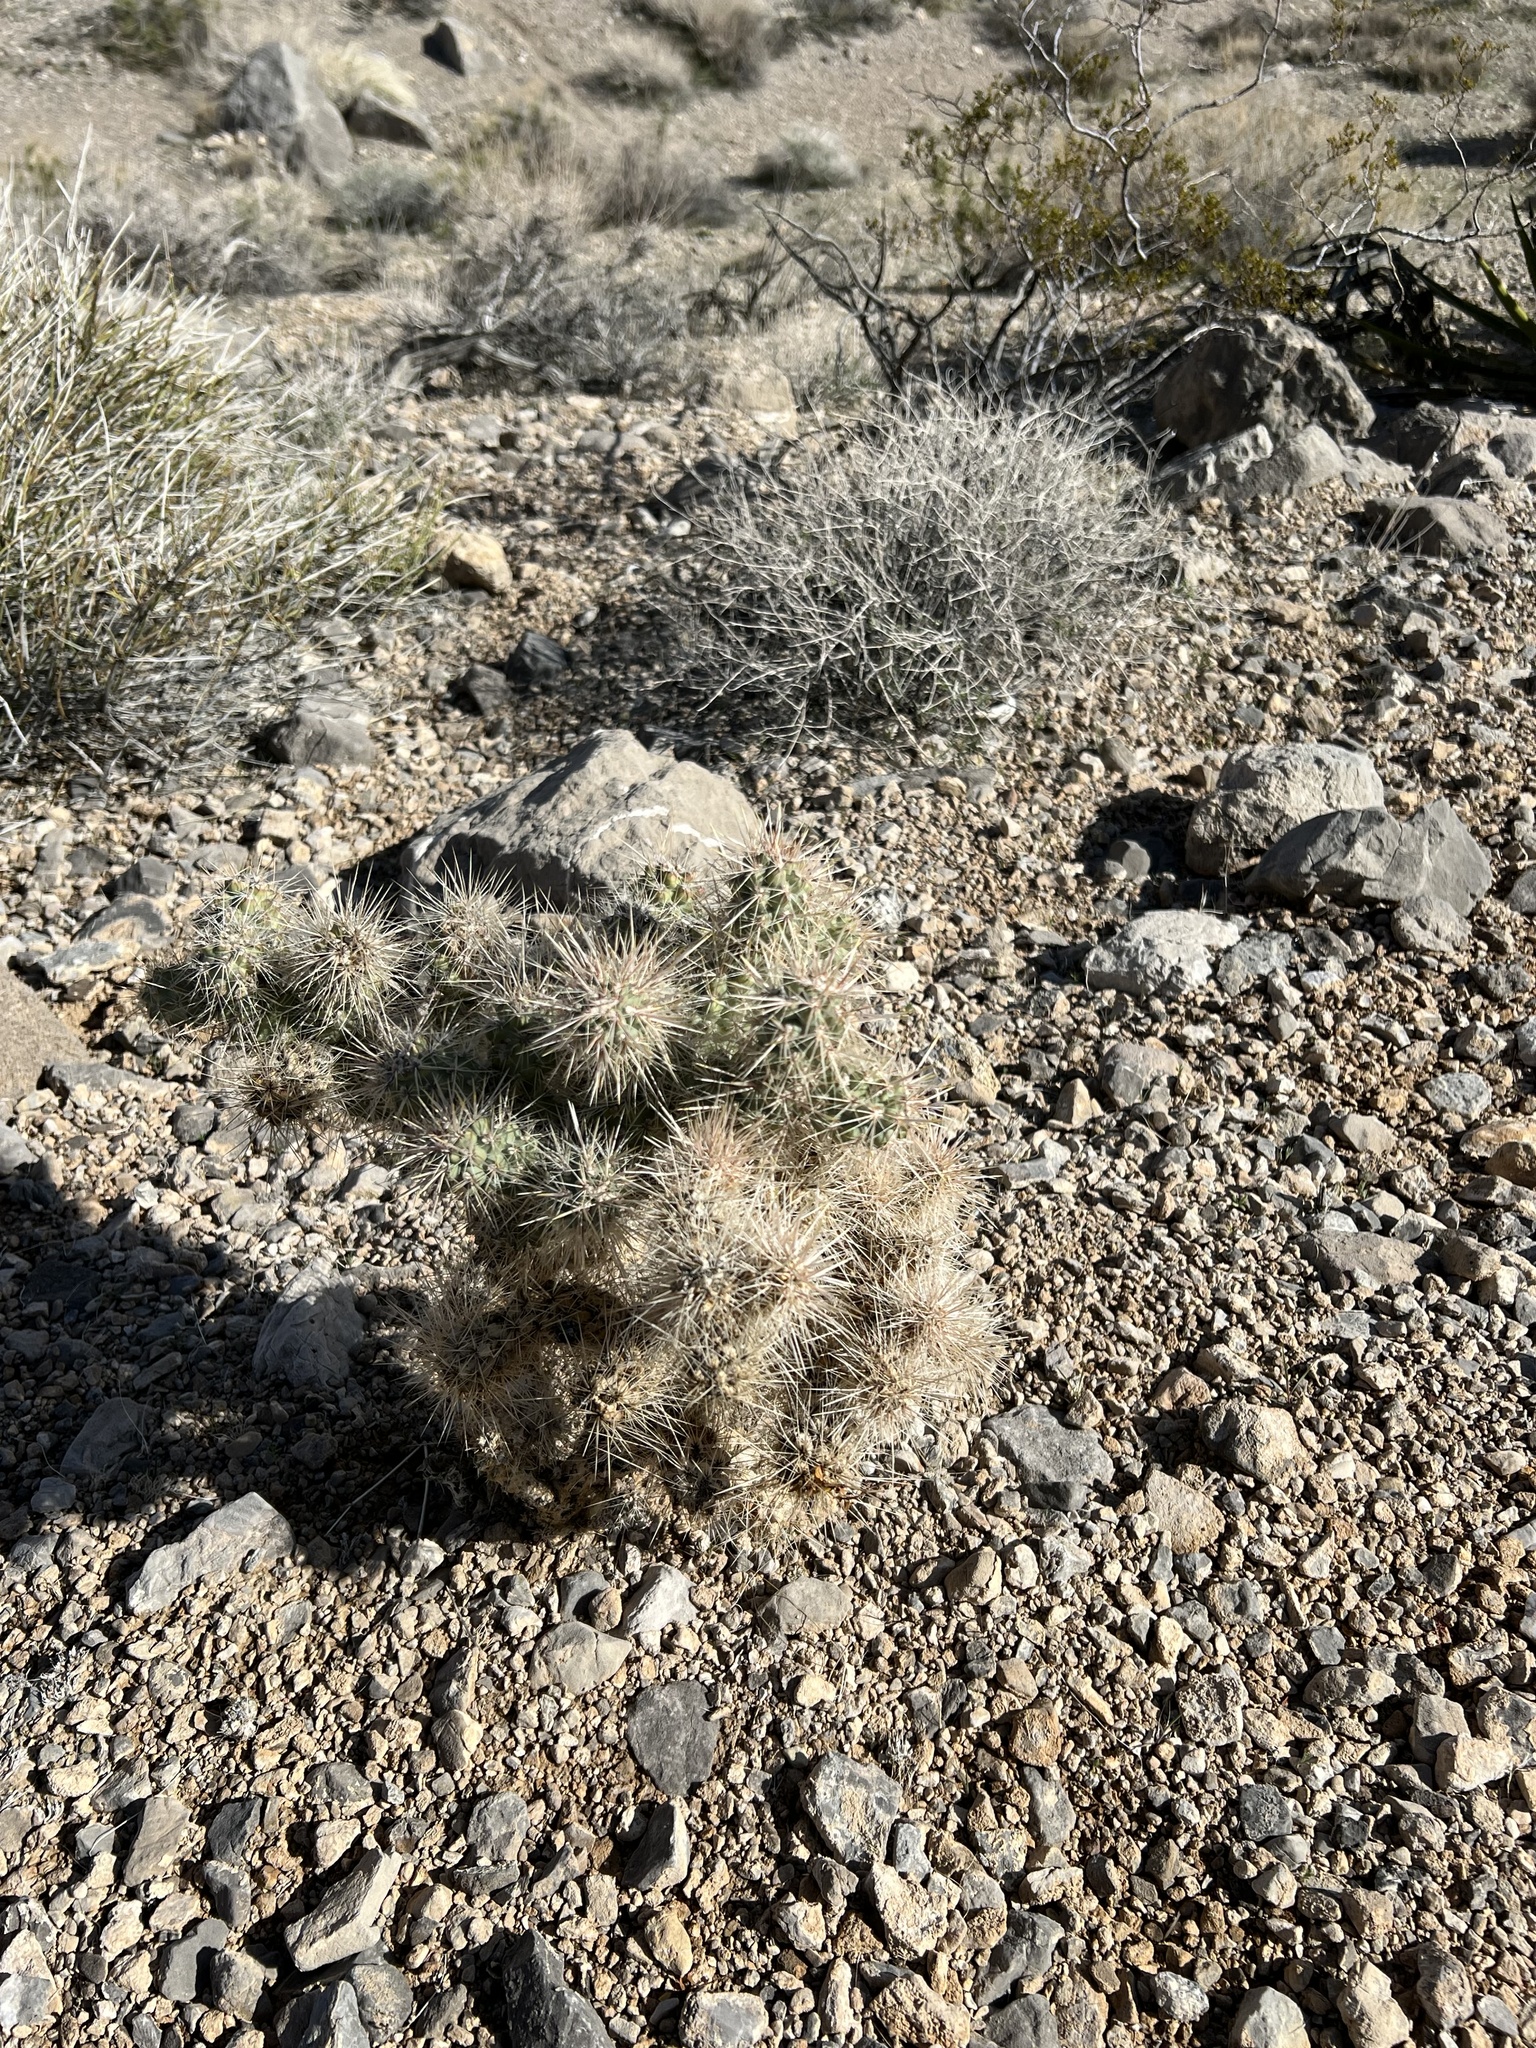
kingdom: Plantae
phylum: Tracheophyta
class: Magnoliopsida
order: Caryophyllales
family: Cactaceae
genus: Cylindropuntia
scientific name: Cylindropuntia echinocarpa
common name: Ground cholla
